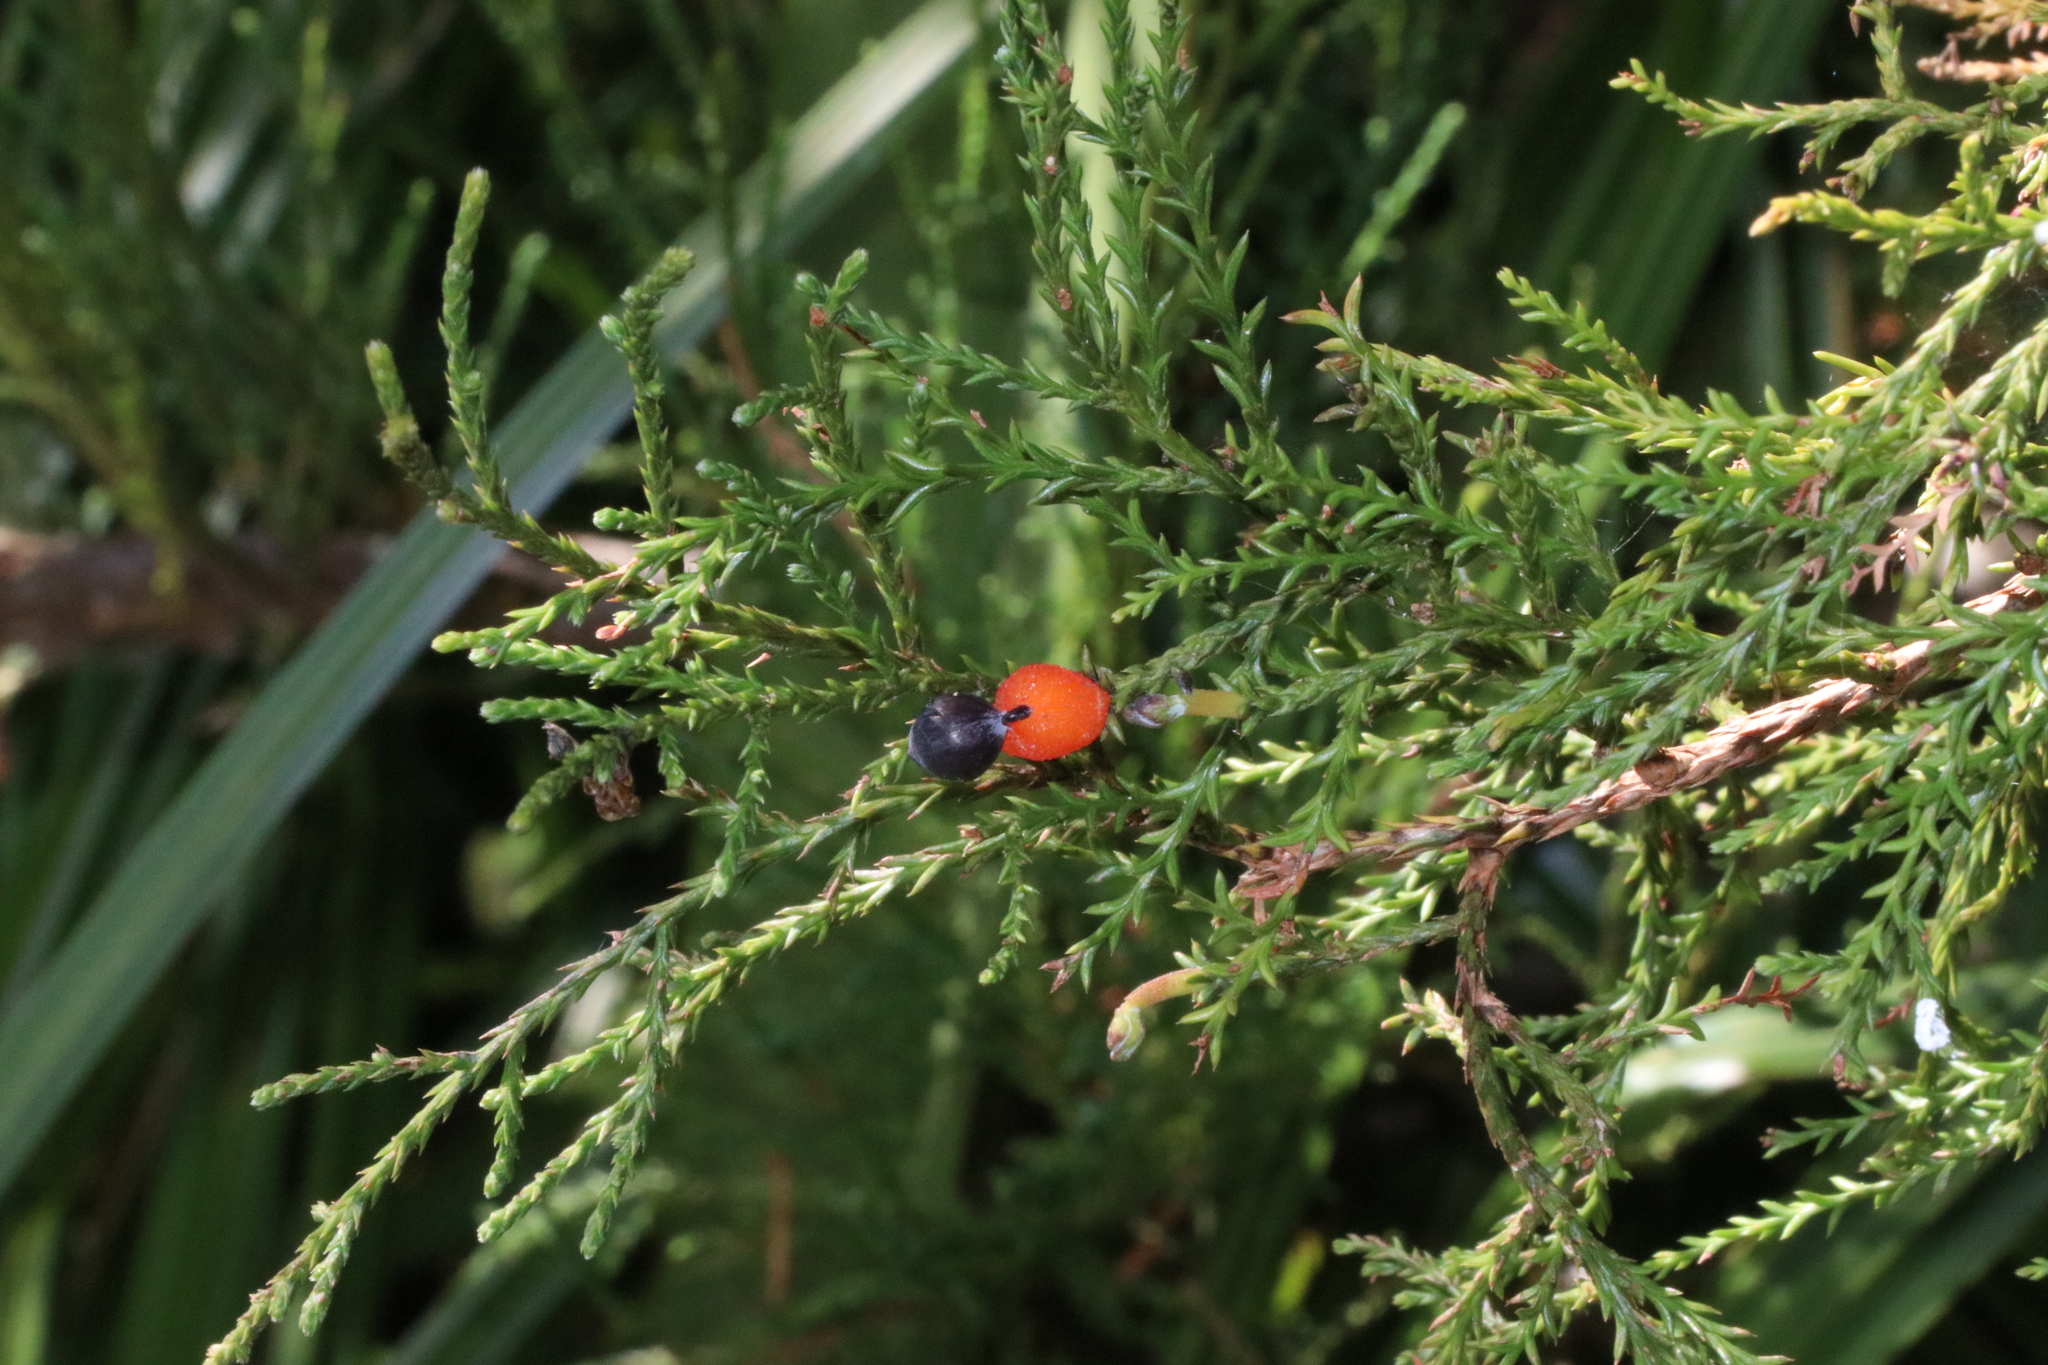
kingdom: Plantae
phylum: Tracheophyta
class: Pinopsida
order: Pinales
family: Podocarpaceae
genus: Dacrycarpus
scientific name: Dacrycarpus dacrydioides
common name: White pine
